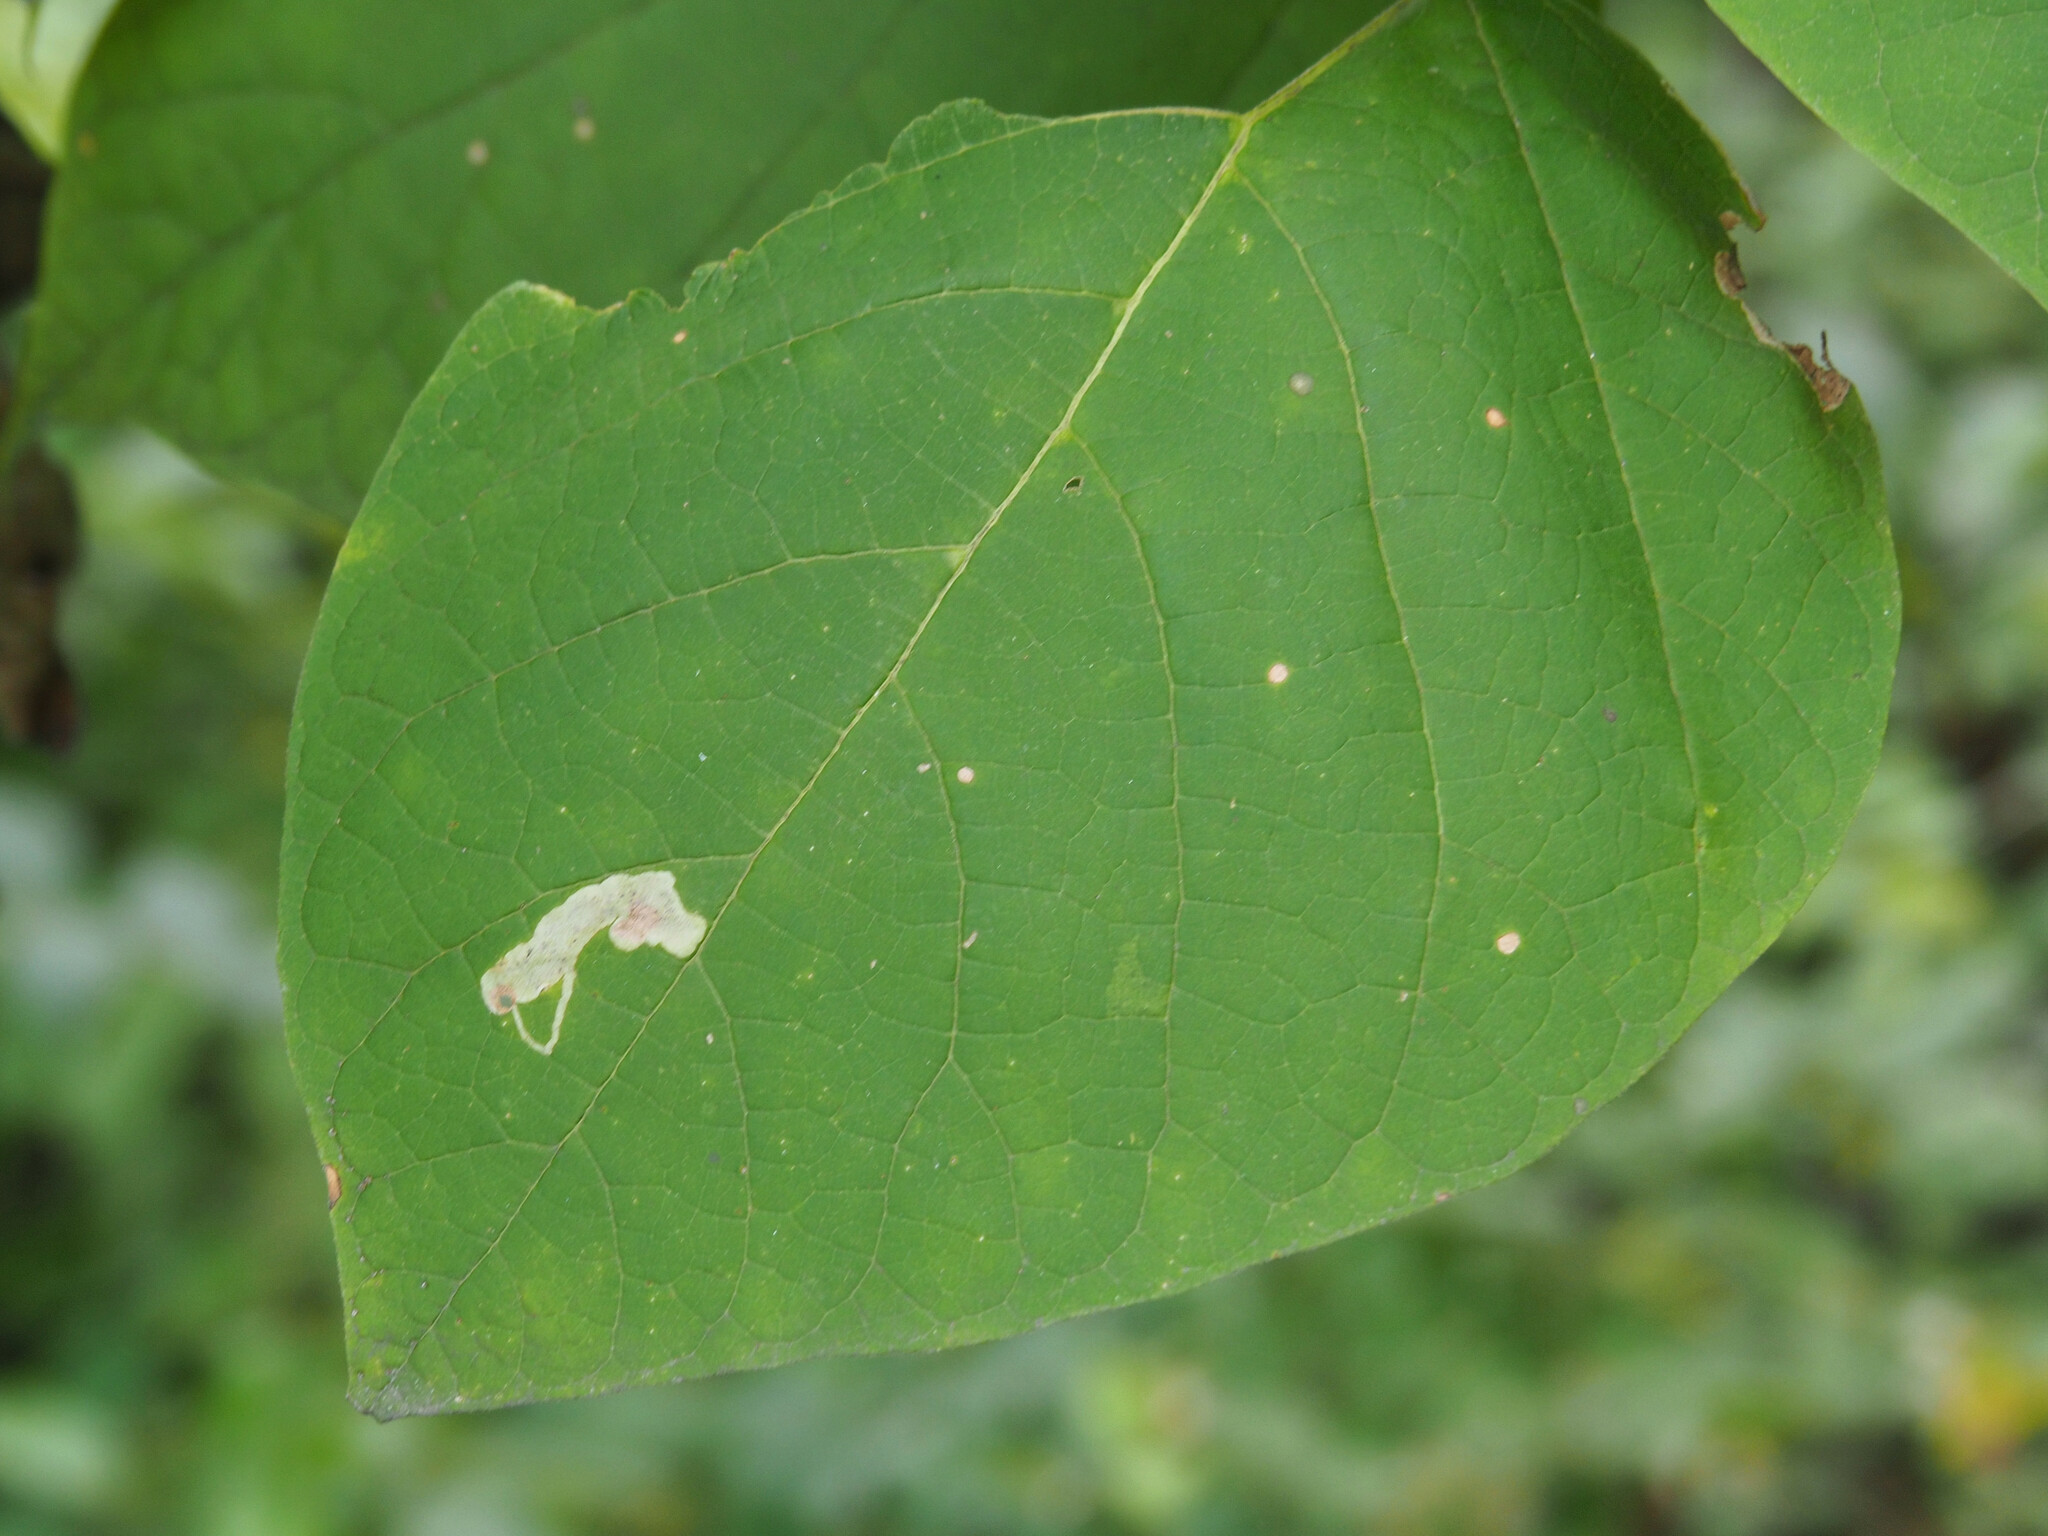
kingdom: Animalia
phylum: Arthropoda
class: Insecta
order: Diptera
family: Agromyzidae
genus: Amauromyza
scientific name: Amauromyza pleuralis
